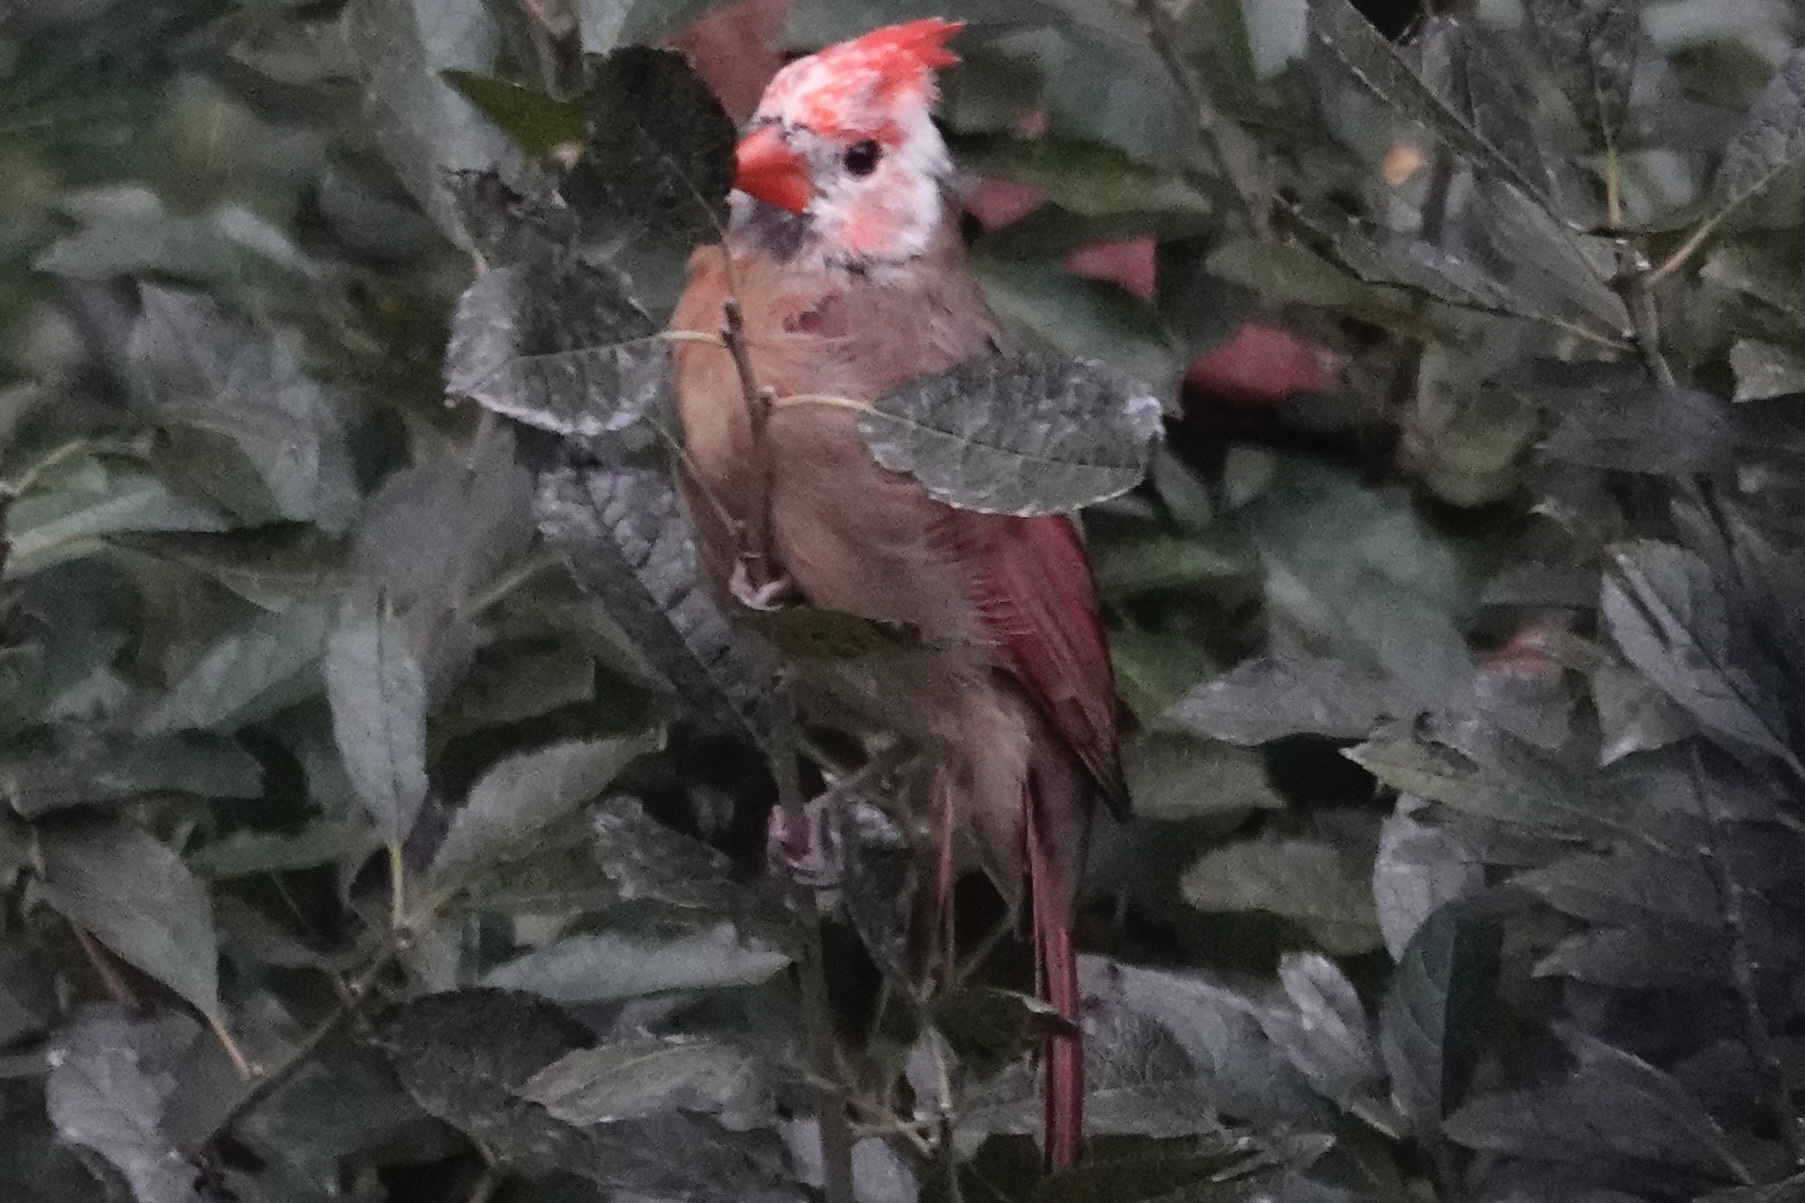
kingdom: Animalia
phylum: Chordata
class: Aves
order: Passeriformes
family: Cardinalidae
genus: Cardinalis
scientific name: Cardinalis cardinalis
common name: Northern cardinal
